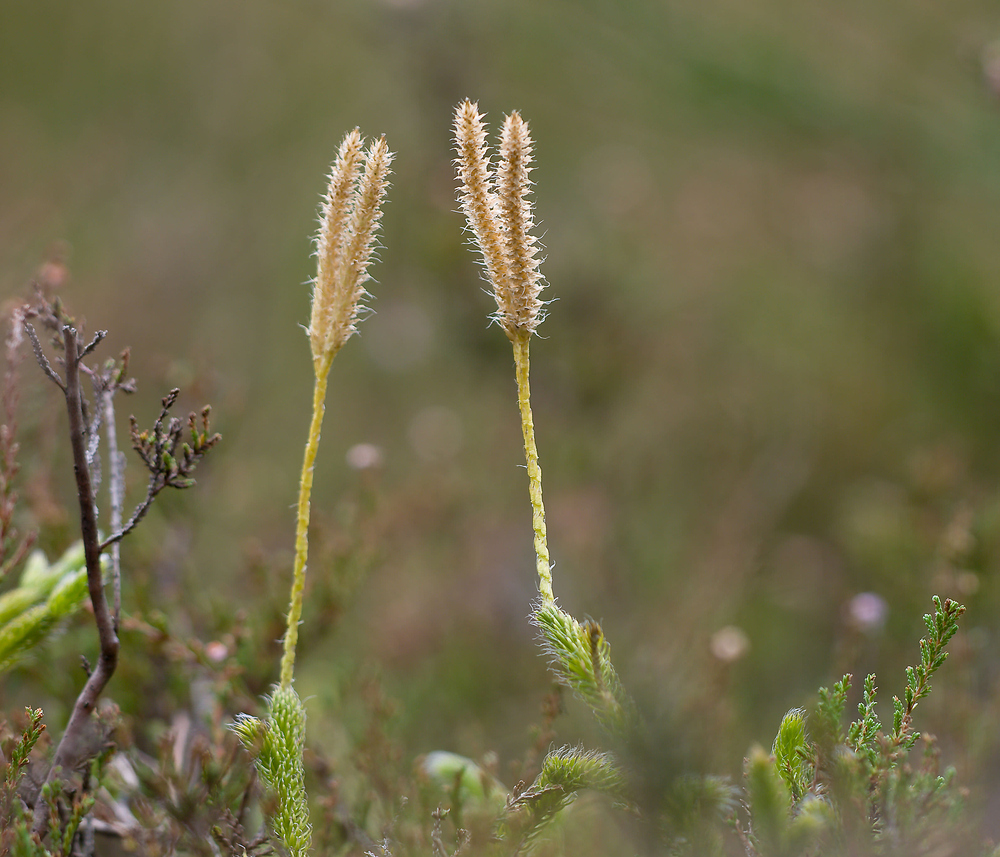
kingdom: Plantae
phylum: Tracheophyta
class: Lycopodiopsida
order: Lycopodiales
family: Lycopodiaceae
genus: Lycopodium
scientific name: Lycopodium clavatum
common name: Stag's-horn clubmoss
